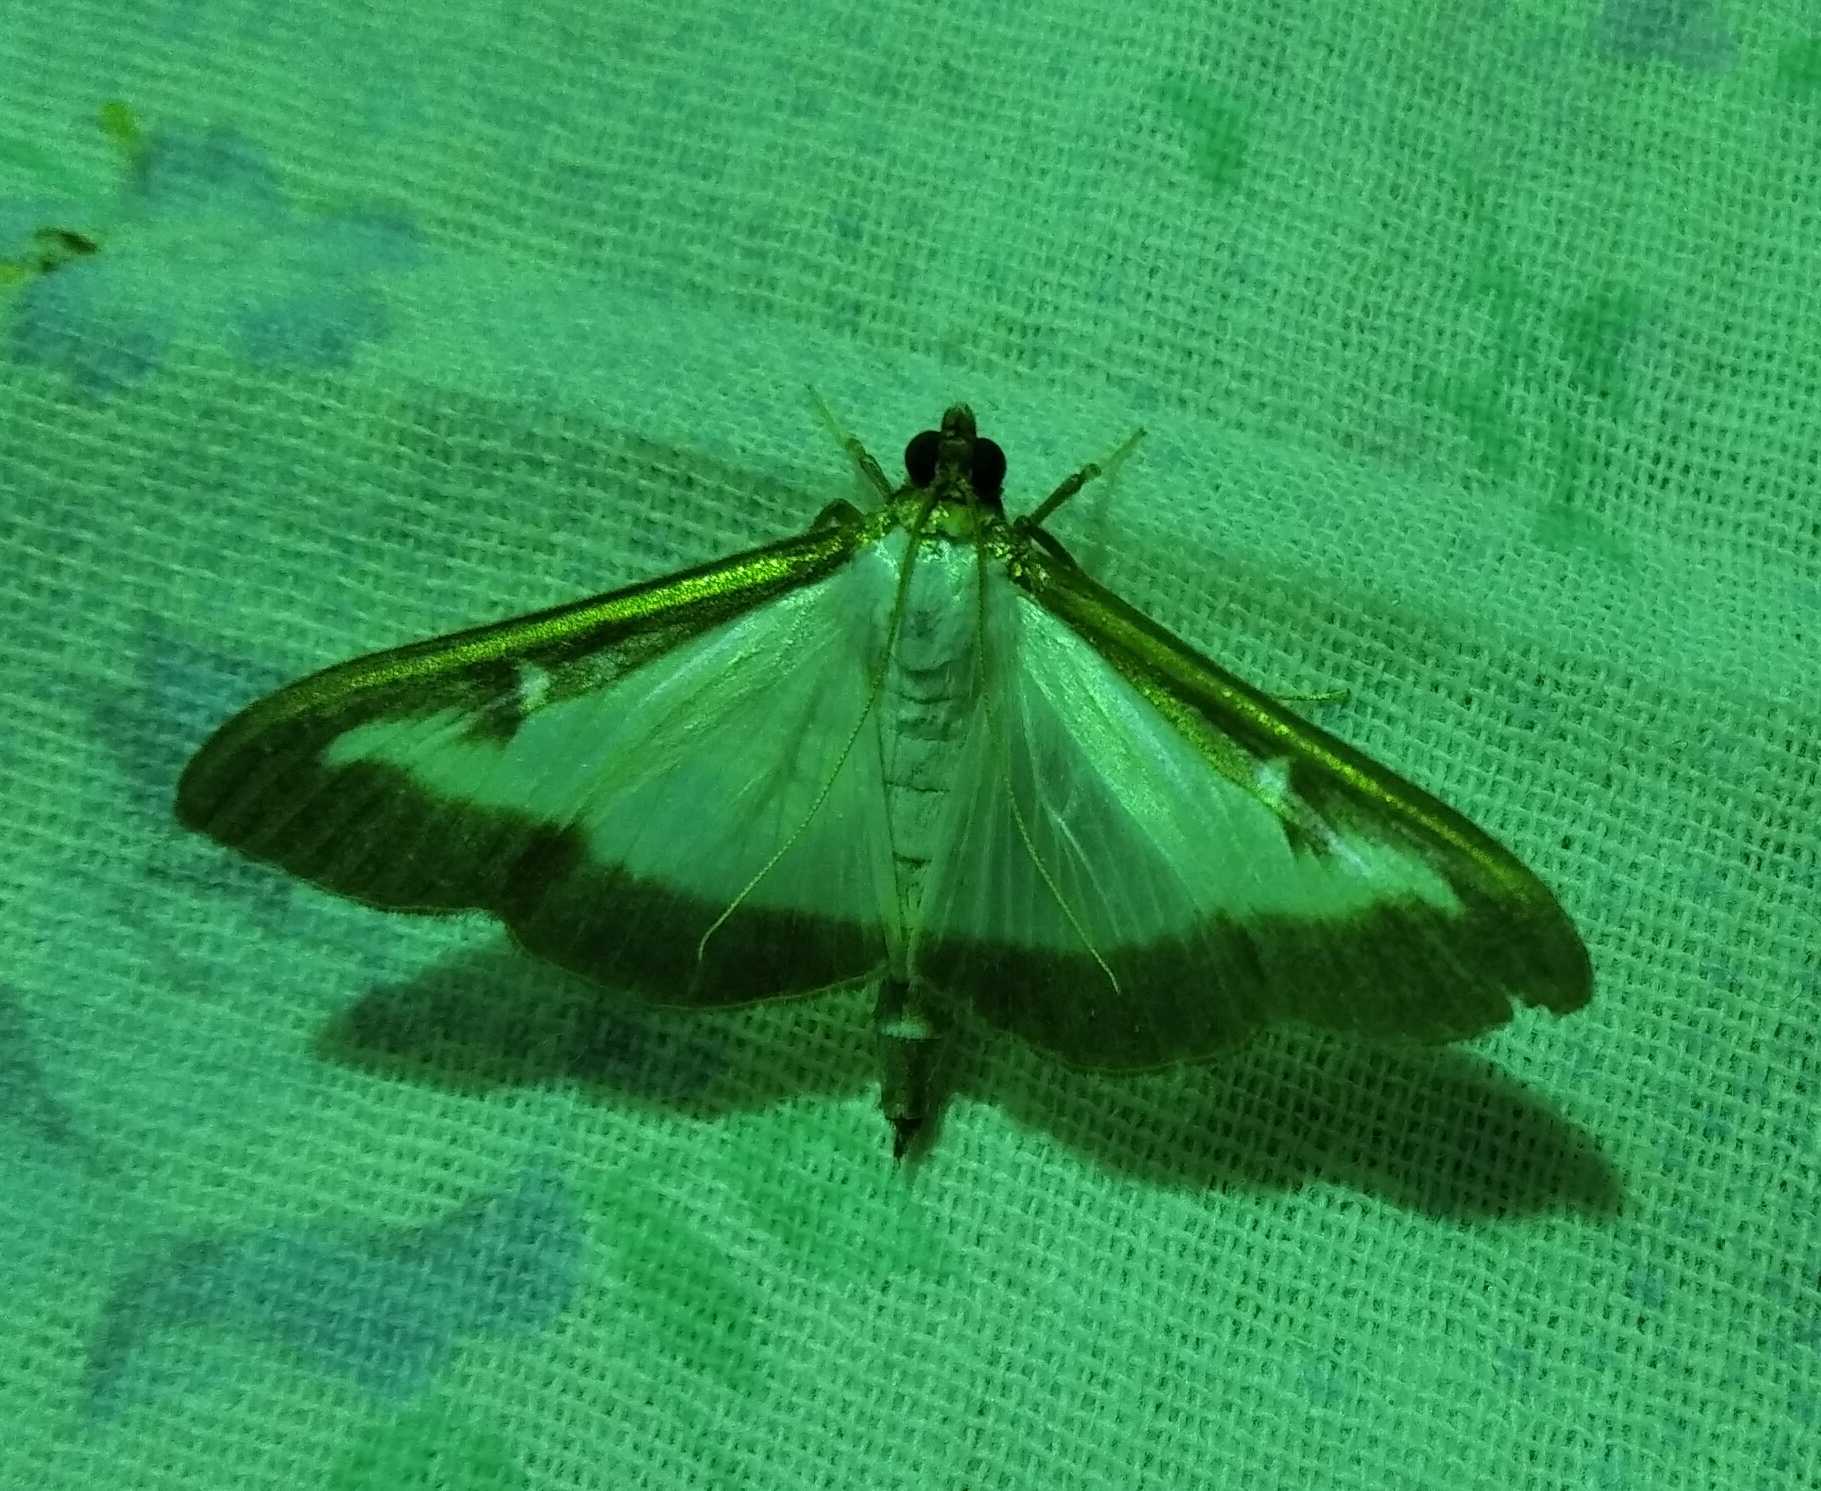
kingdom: Animalia
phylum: Arthropoda
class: Insecta
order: Lepidoptera
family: Crambidae
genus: Cydalima
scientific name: Cydalima perspectalis
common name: Box tree moth
